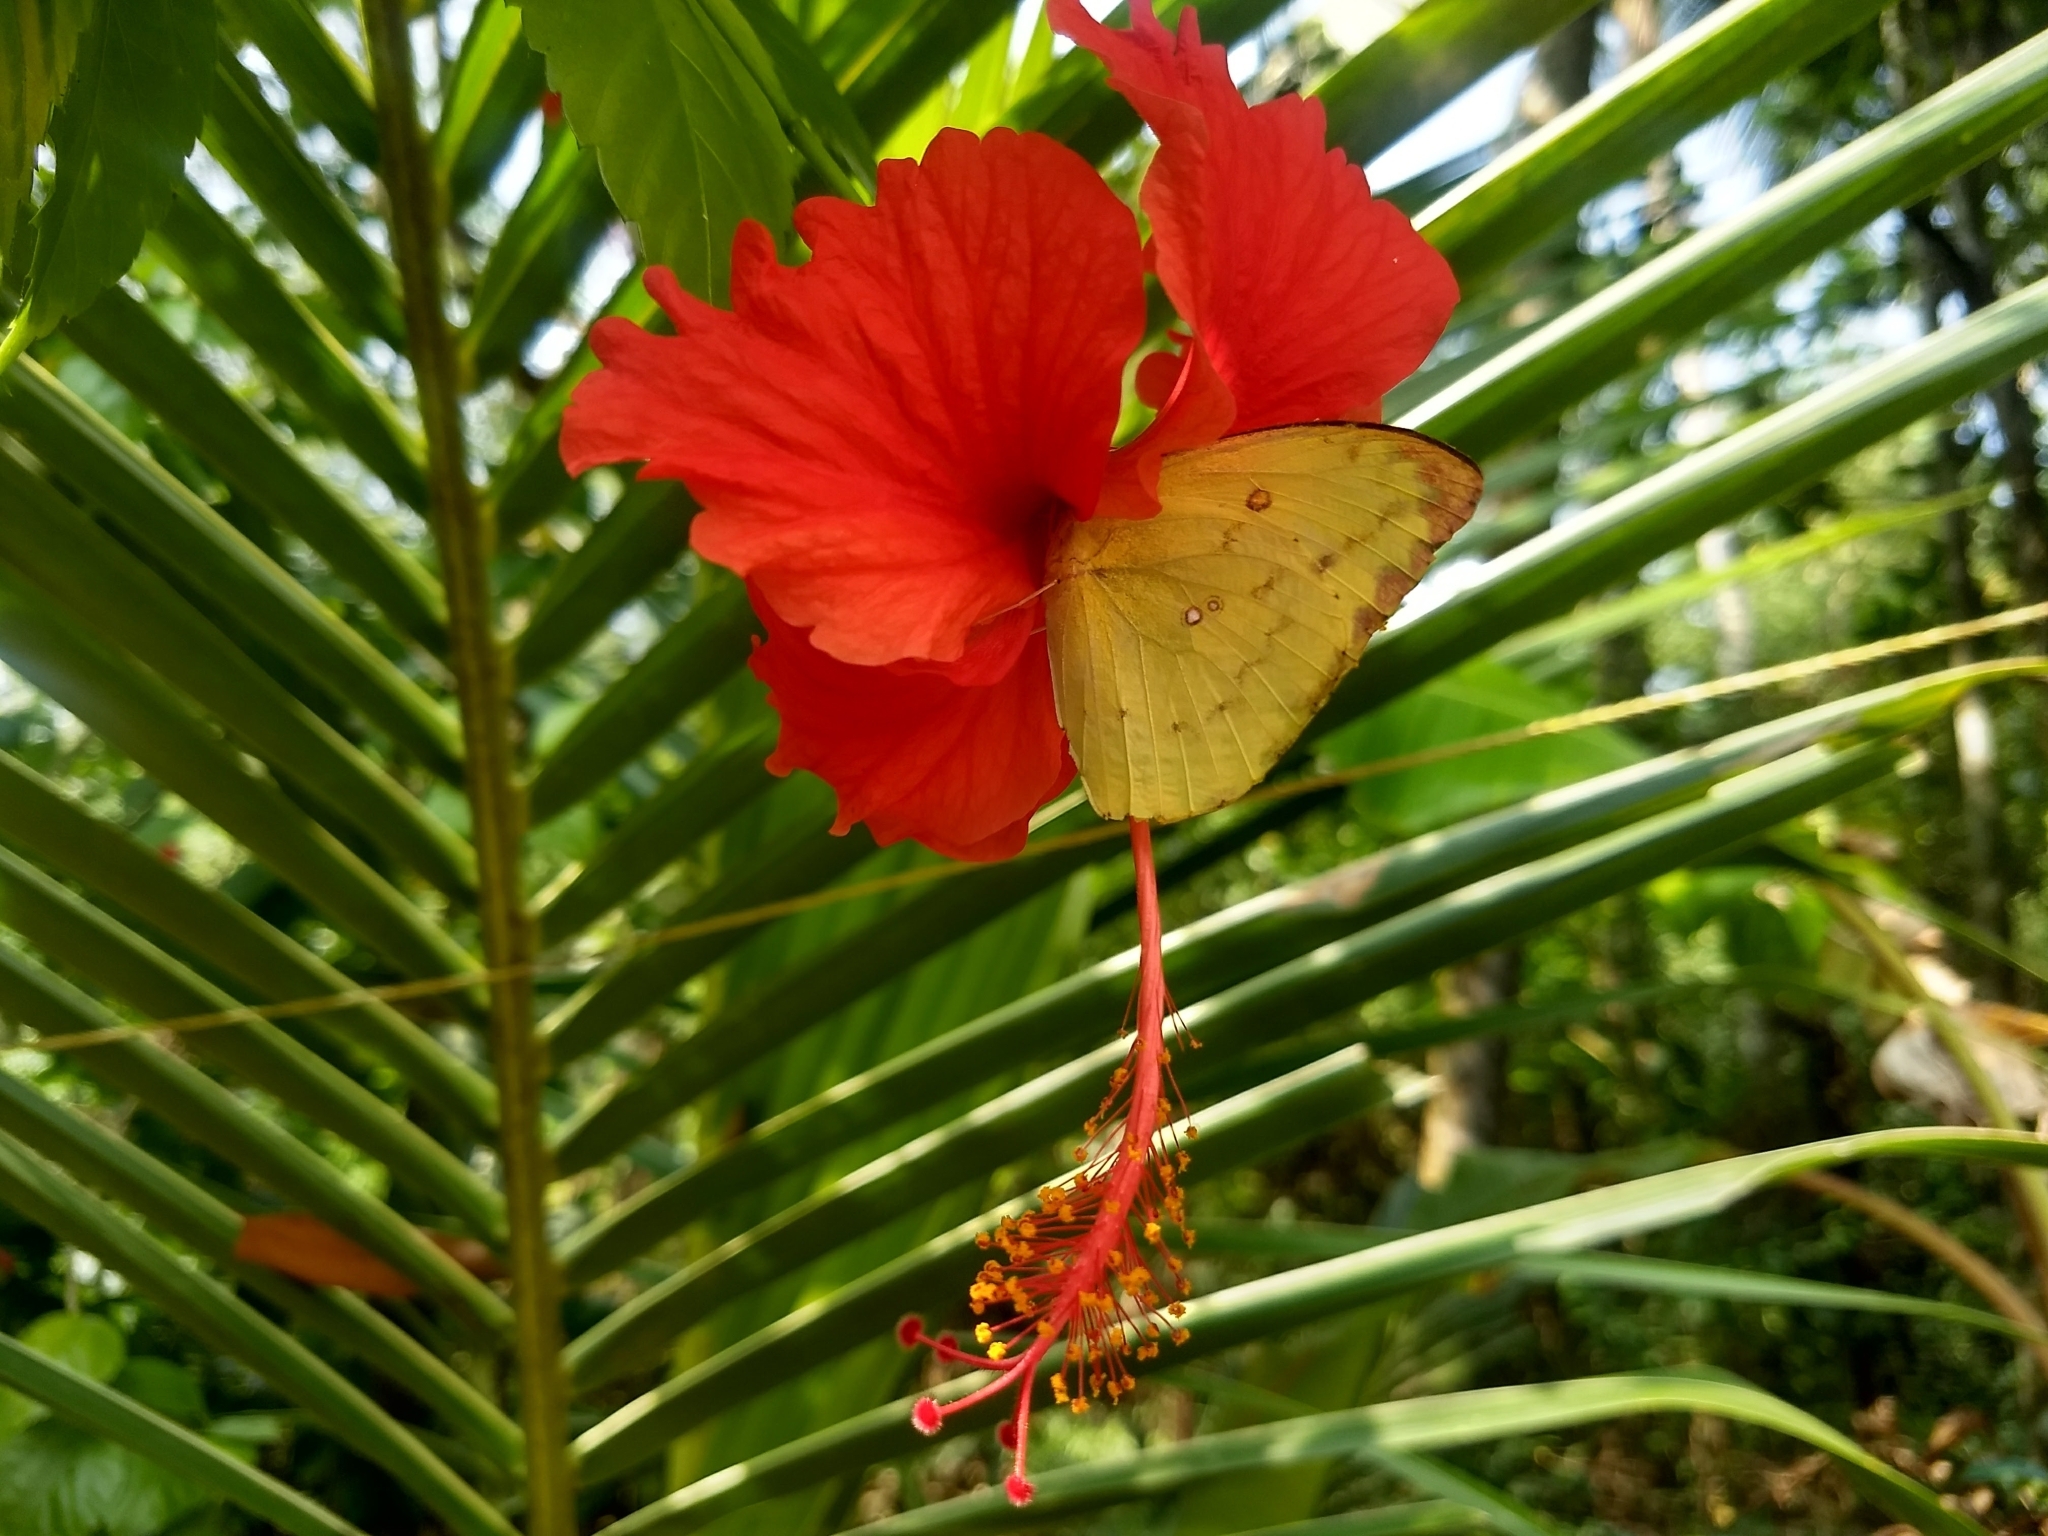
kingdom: Animalia
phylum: Arthropoda
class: Insecta
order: Lepidoptera
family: Pieridae
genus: Catopsilia
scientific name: Catopsilia pomona
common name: Common emigrant
